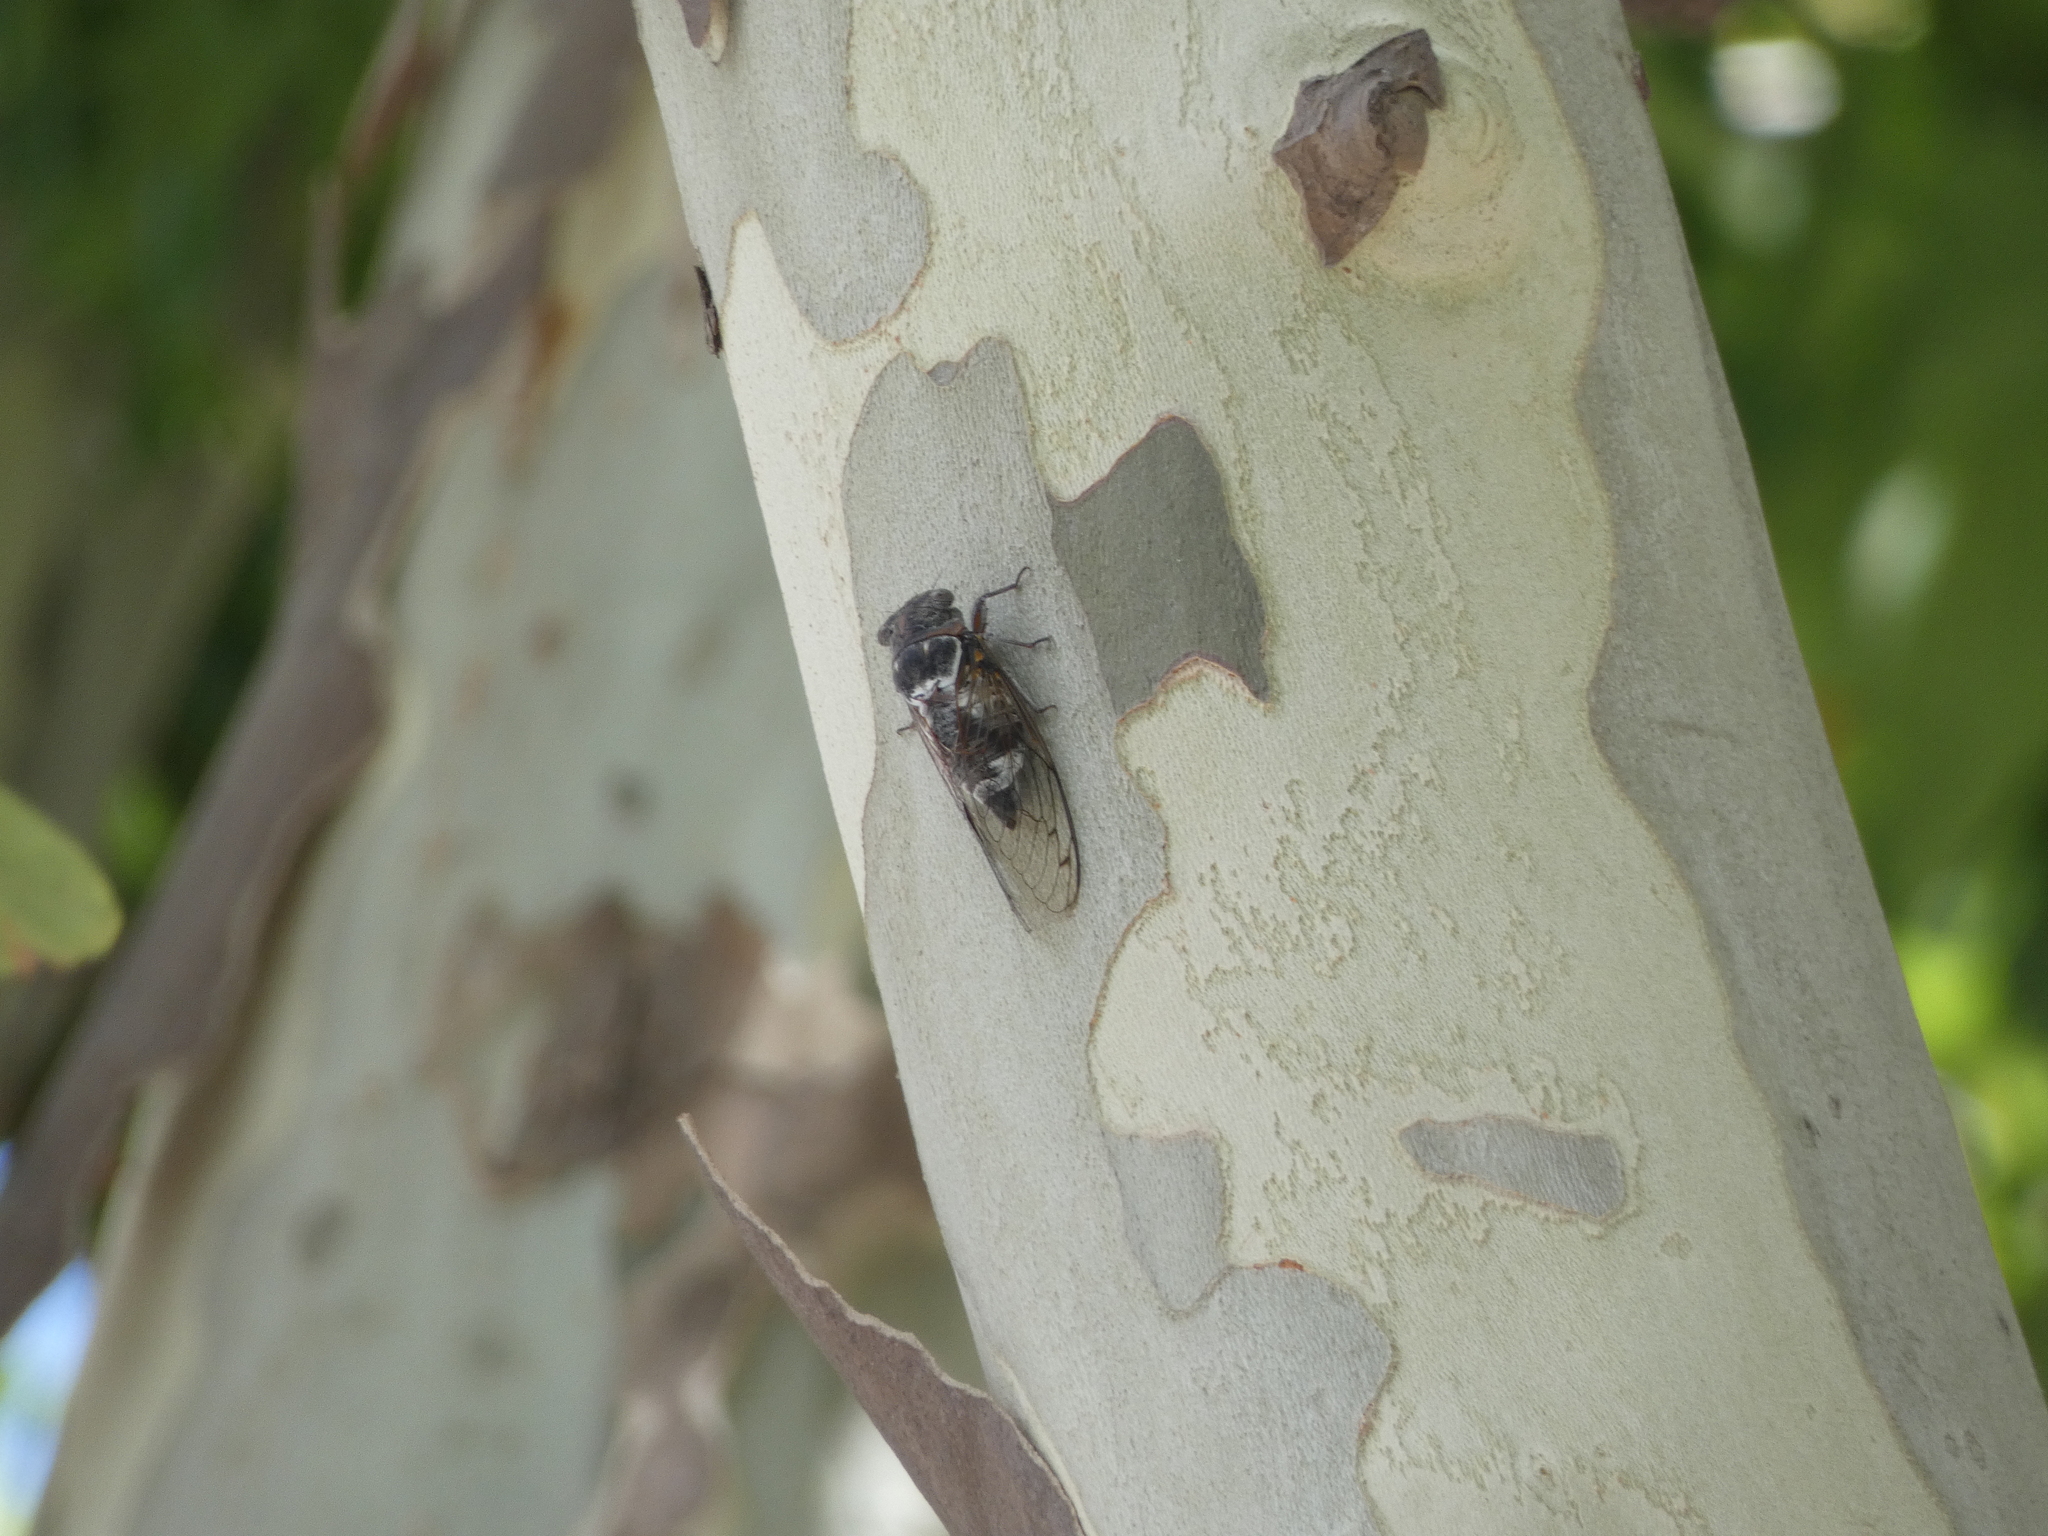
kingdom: Animalia
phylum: Arthropoda
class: Insecta
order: Hemiptera
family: Cicadidae
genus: Lyristes
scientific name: Lyristes plebejus
